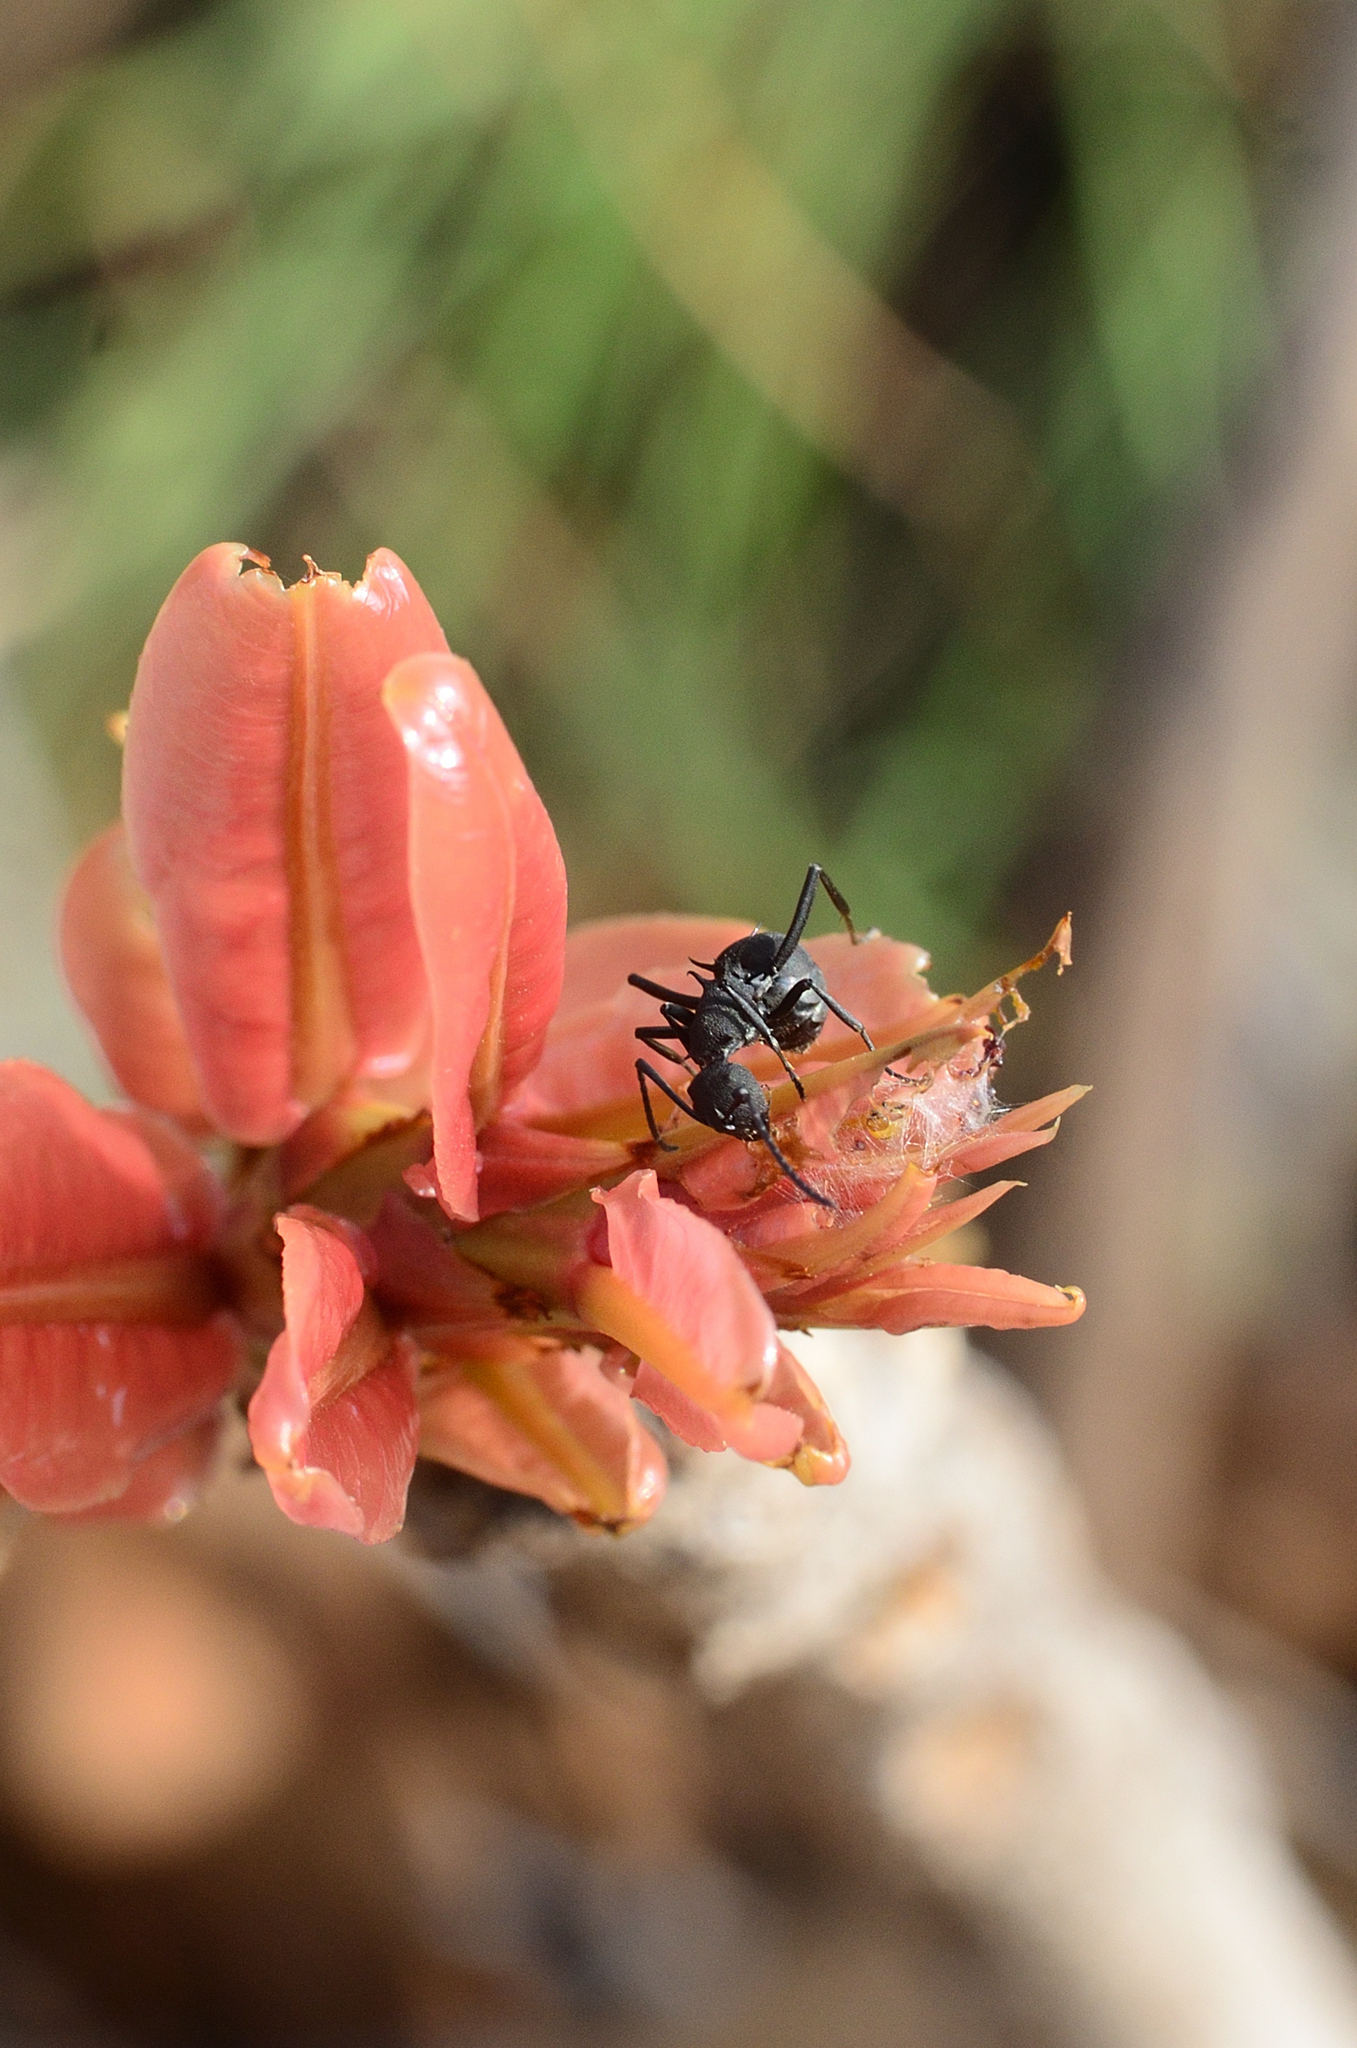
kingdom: Animalia
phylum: Arthropoda
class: Insecta
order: Hymenoptera
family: Formicidae
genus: Polyrhachis
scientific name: Polyrhachis tubericeps
